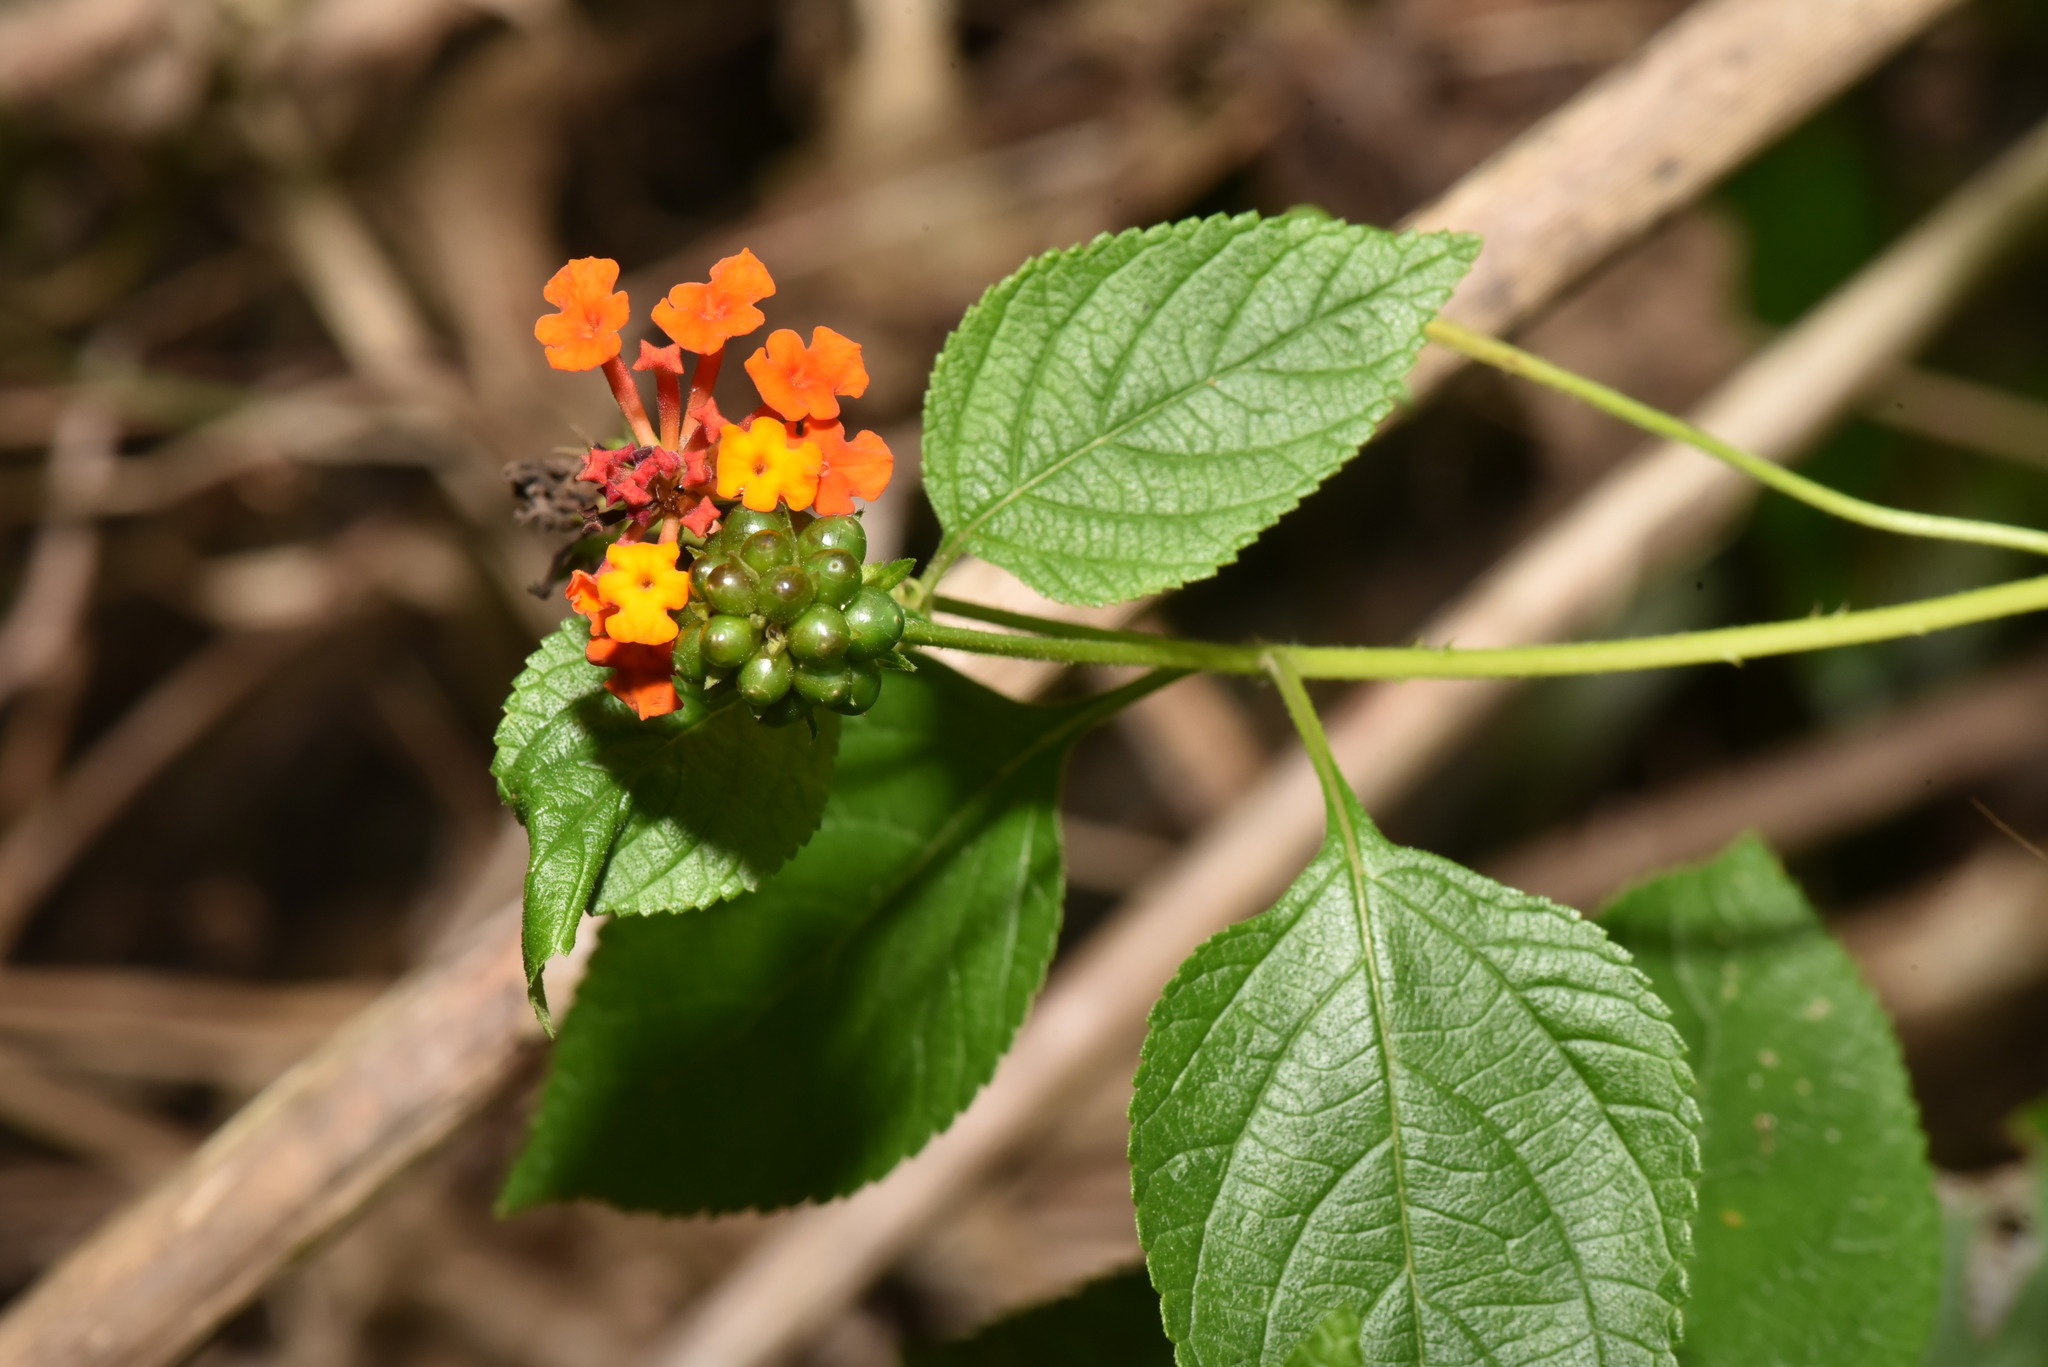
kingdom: Plantae
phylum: Tracheophyta
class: Magnoliopsida
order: Lamiales
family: Verbenaceae
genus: Lantana
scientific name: Lantana camara
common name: Lantana
